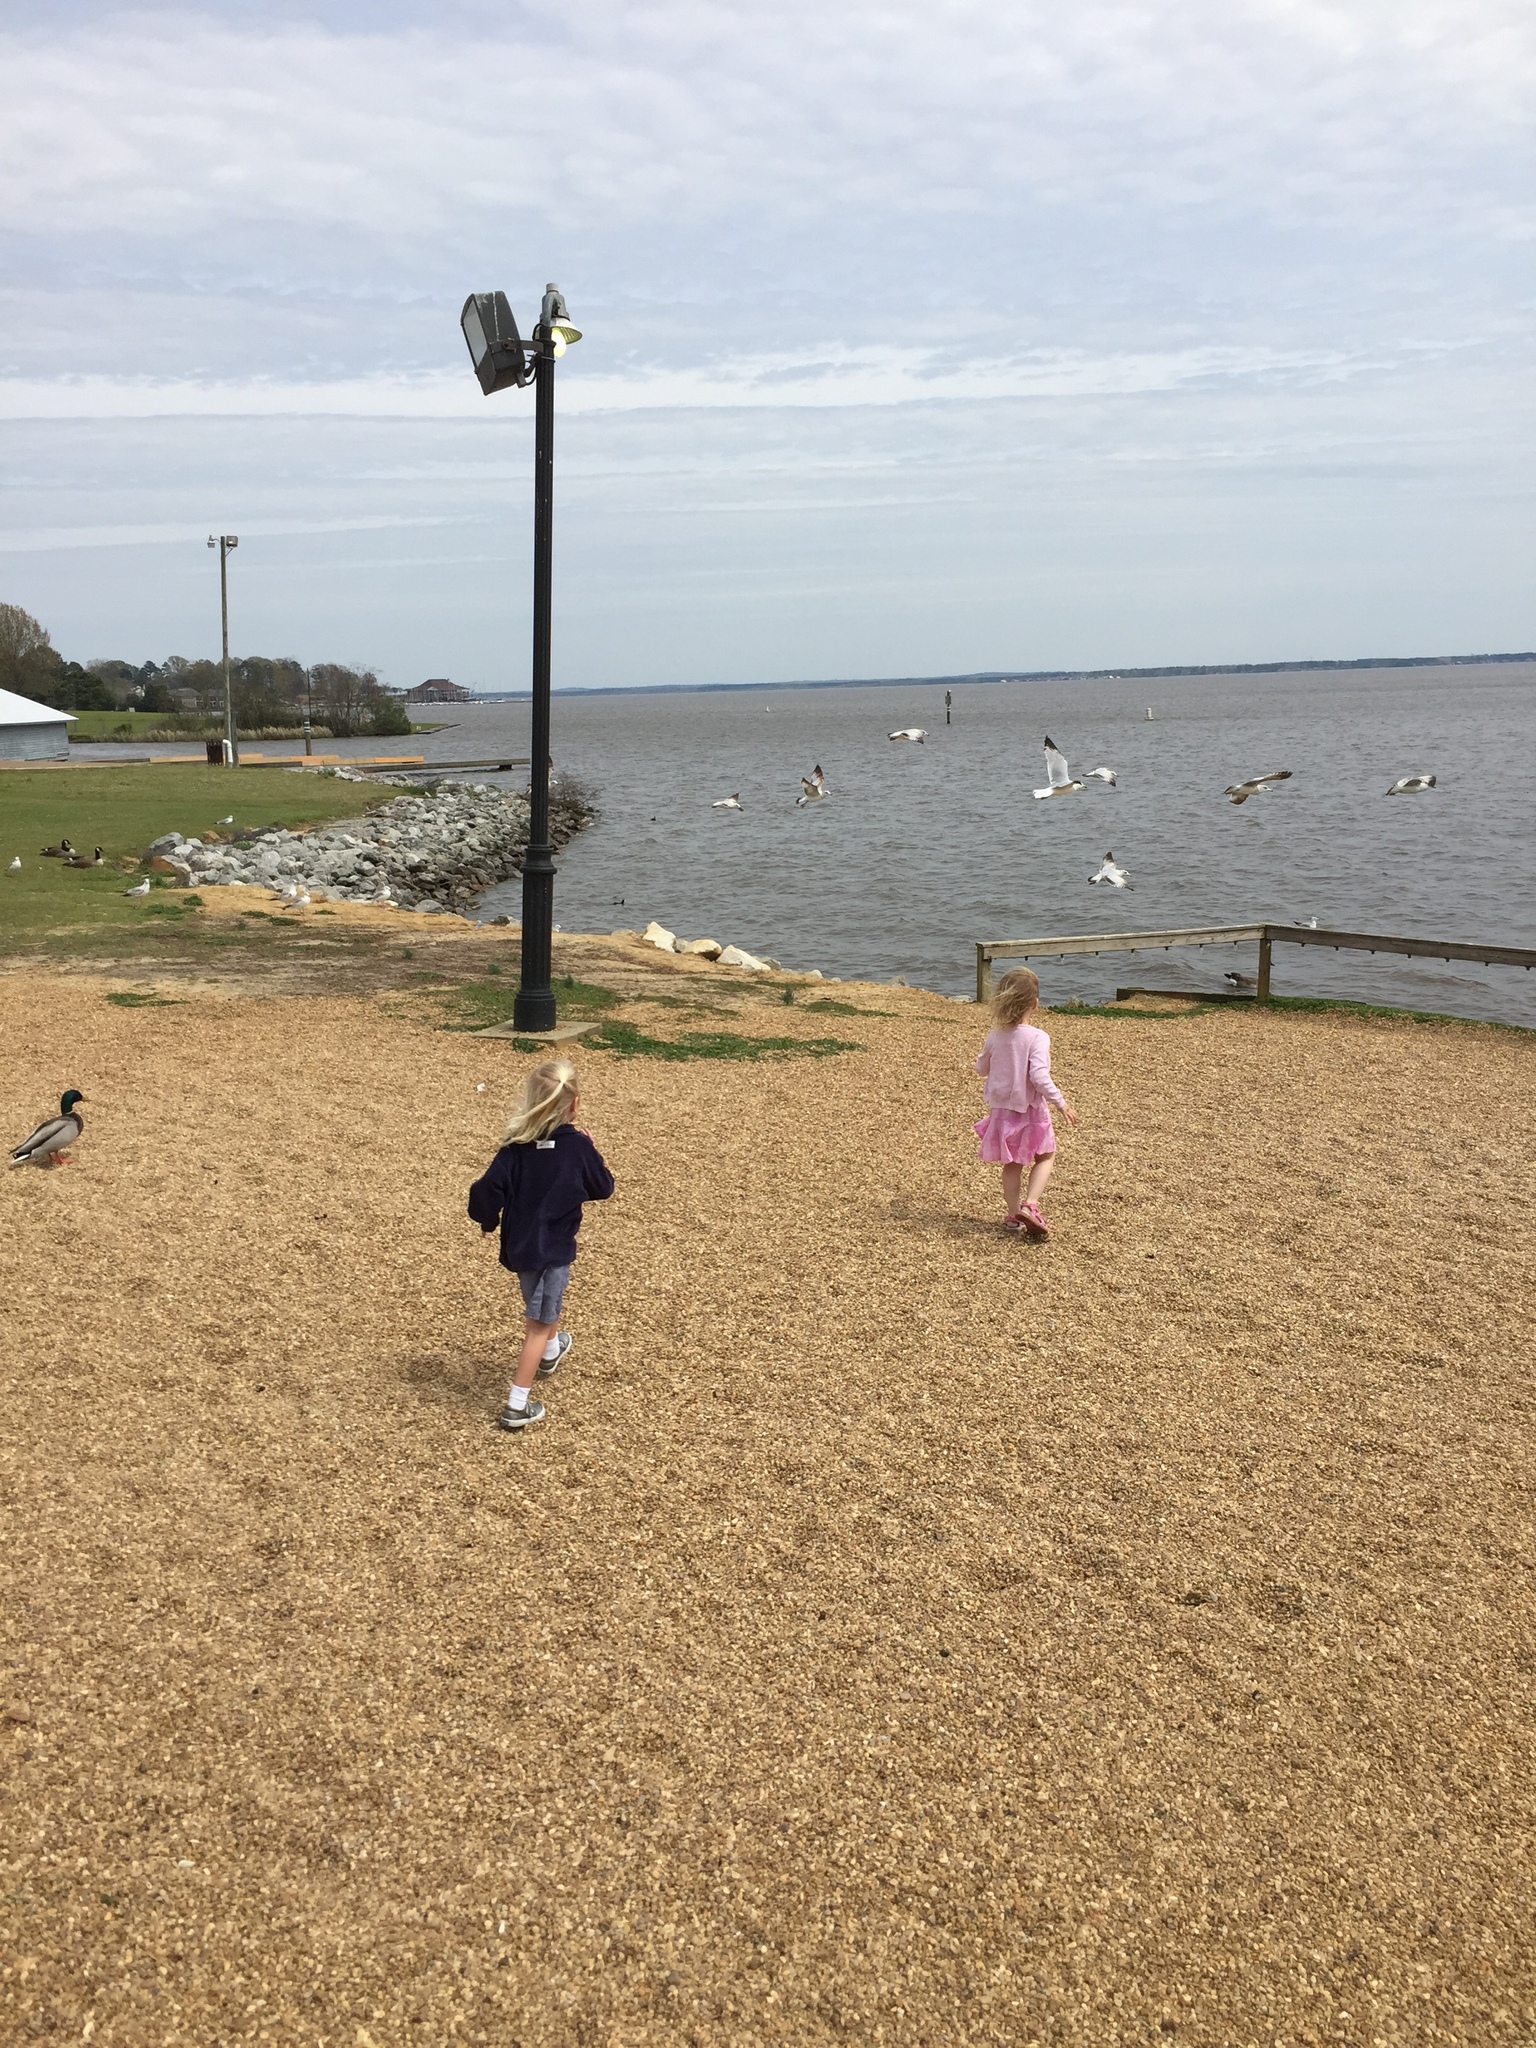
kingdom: Animalia
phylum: Chordata
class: Aves
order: Charadriiformes
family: Laridae
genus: Larus
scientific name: Larus delawarensis
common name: Ring-billed gull
